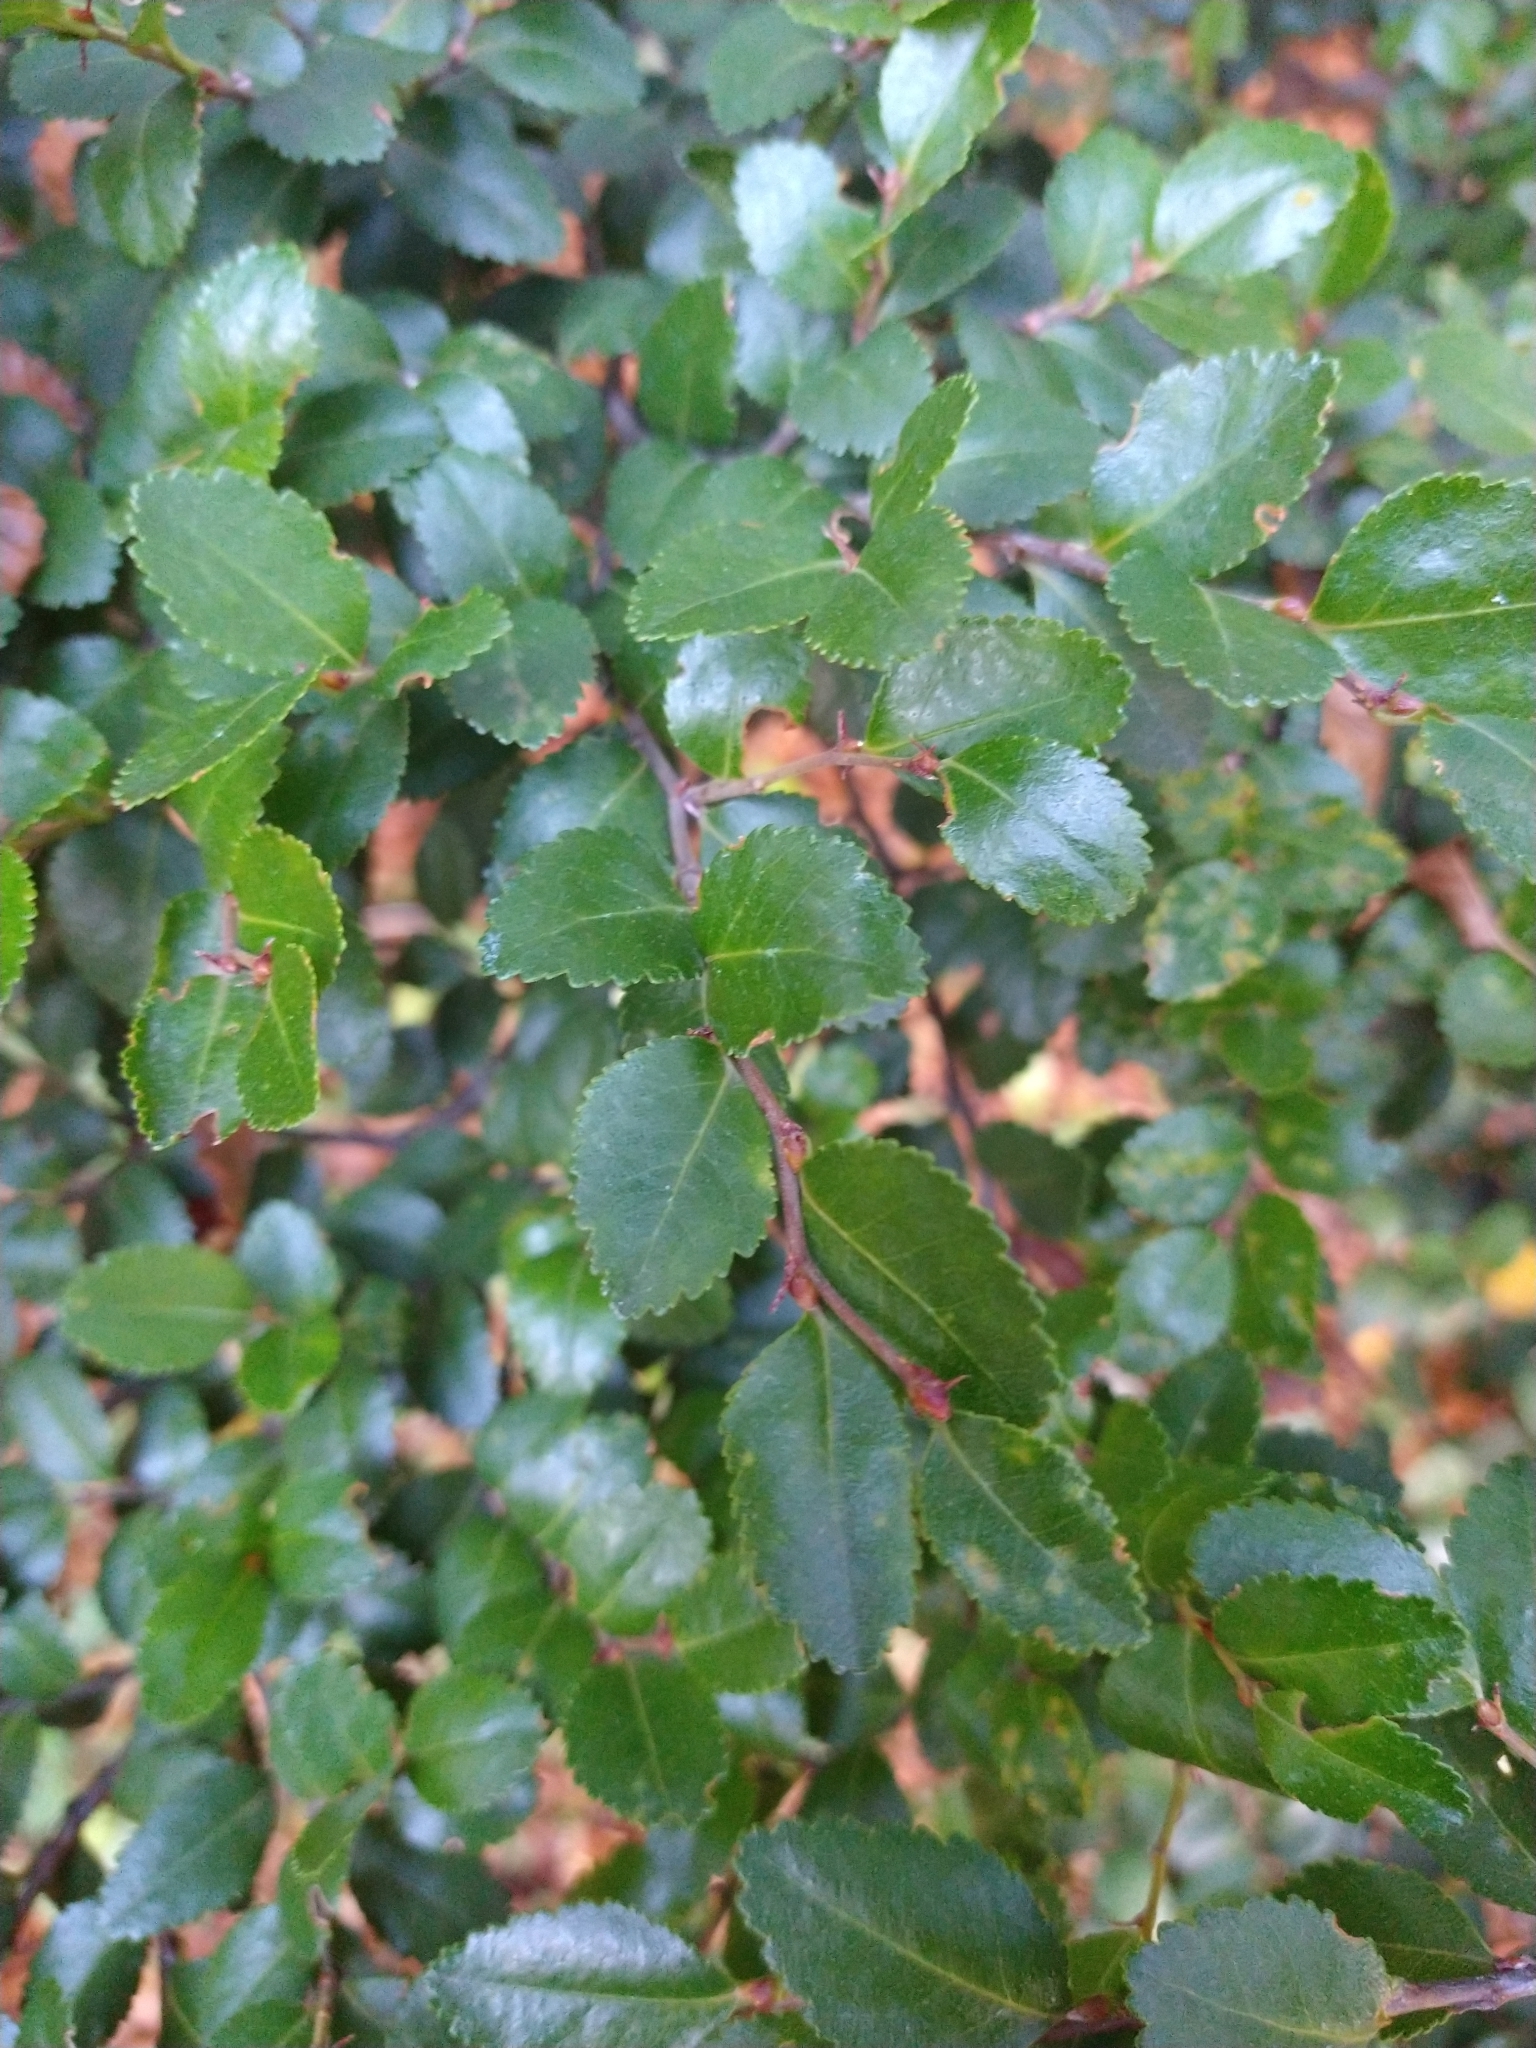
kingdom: Plantae
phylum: Tracheophyta
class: Magnoliopsida
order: Fagales
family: Nothofagaceae
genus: Nothofagus
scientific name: Nothofagus betuloides
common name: Magellan's beech
